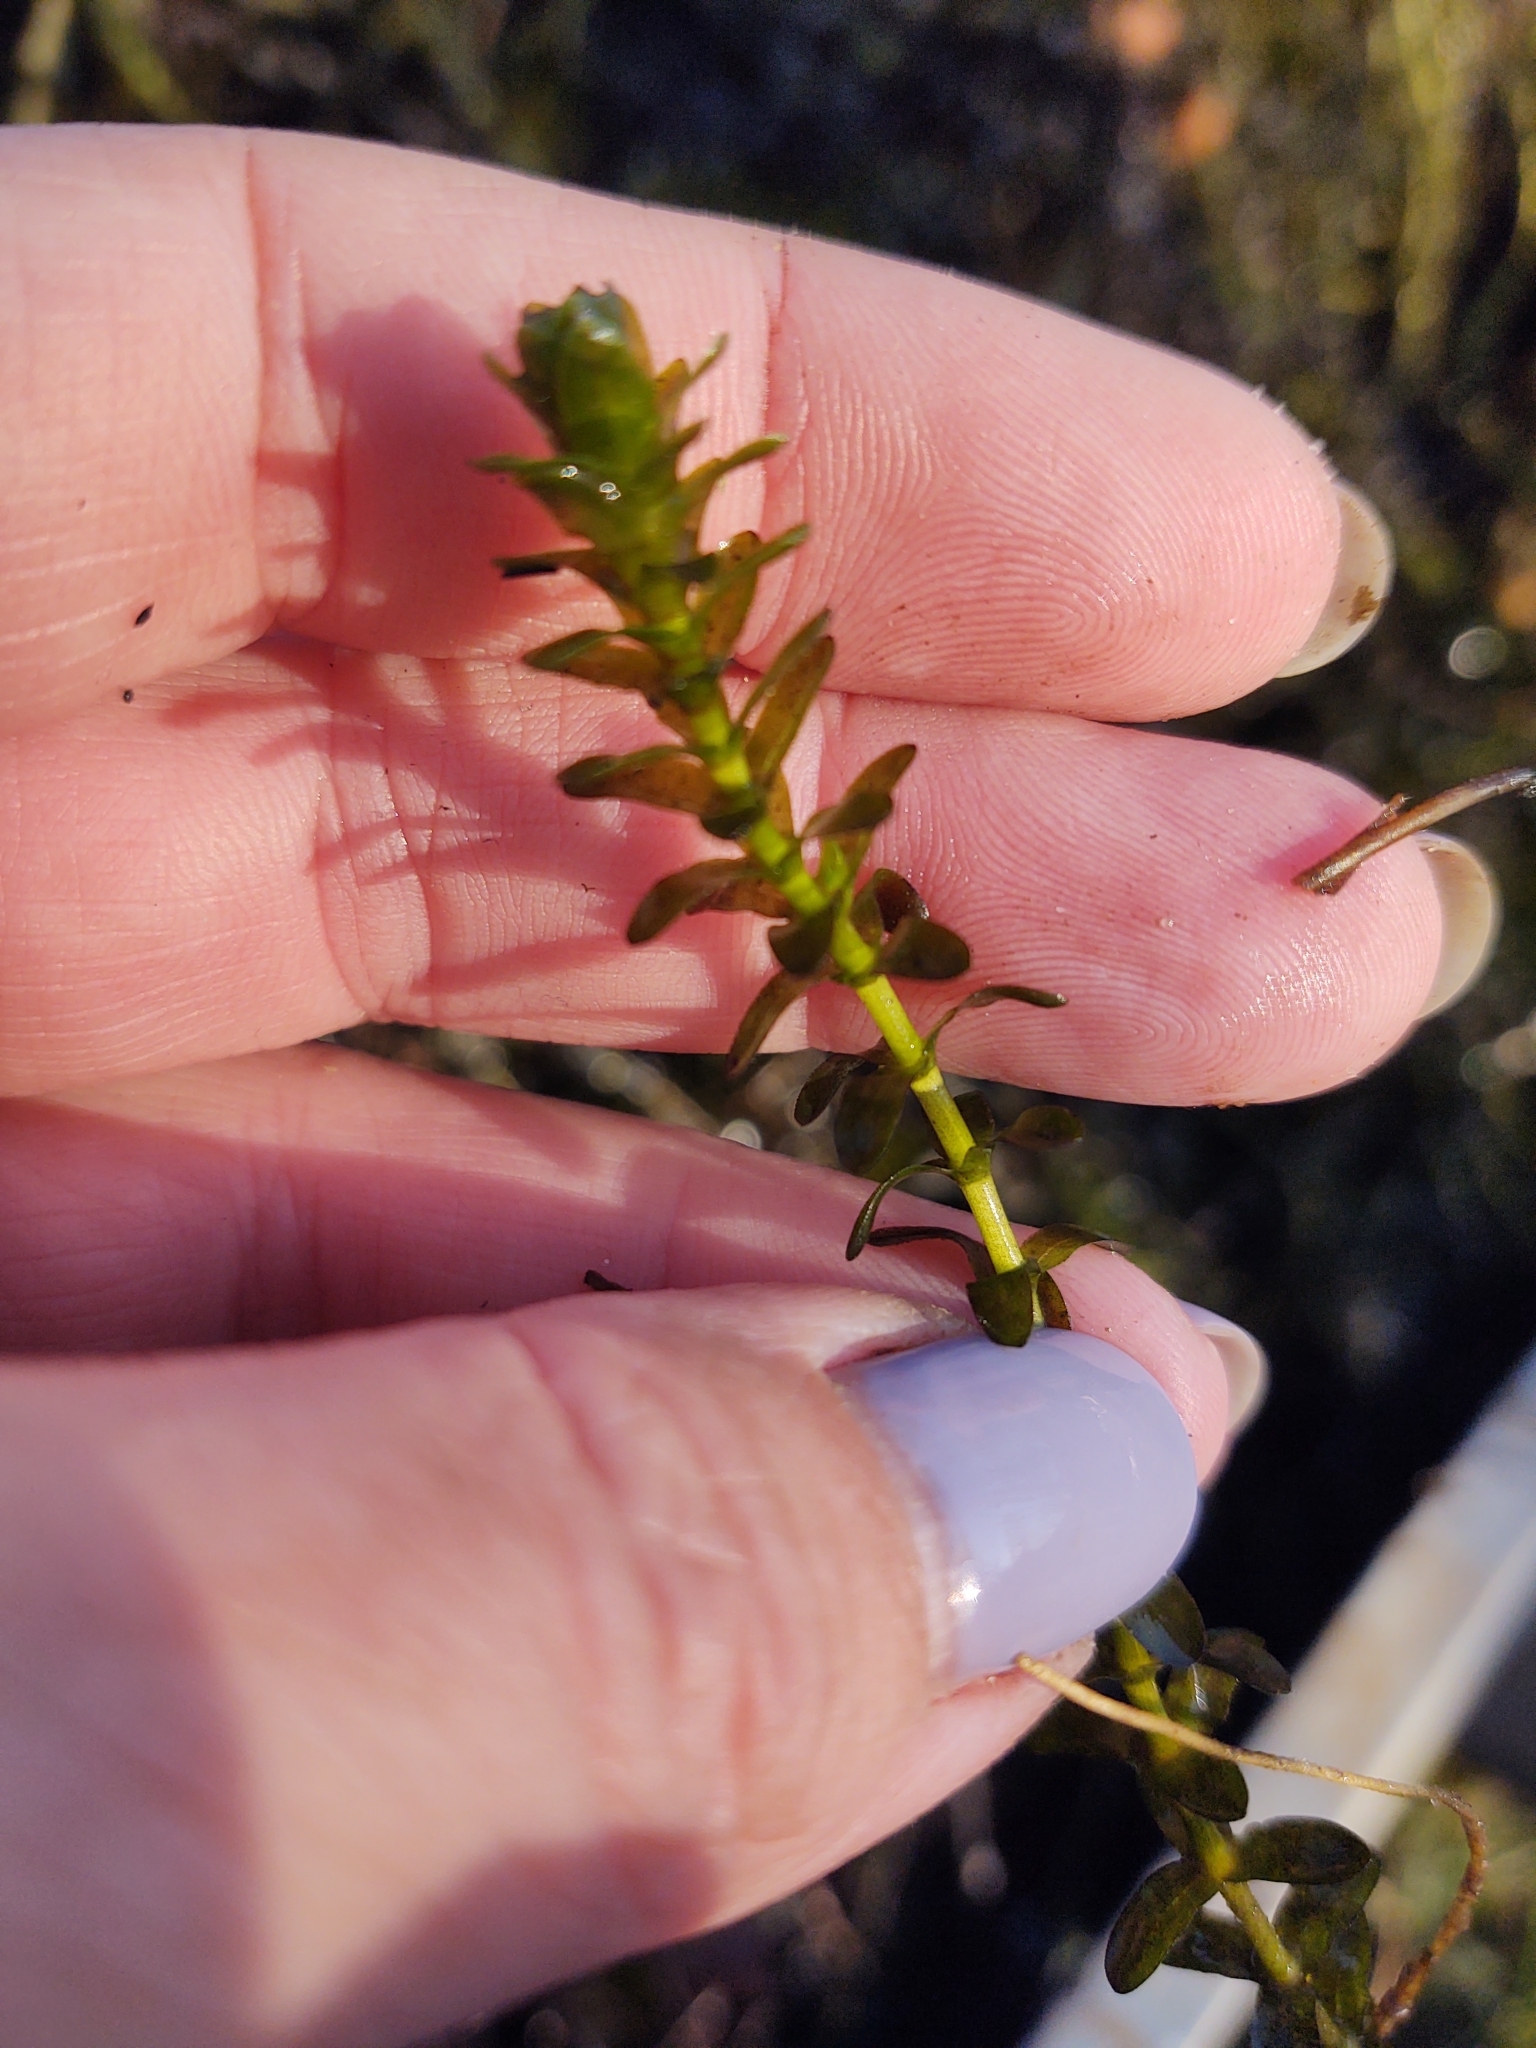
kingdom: Plantae
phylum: Tracheophyta
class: Liliopsida
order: Alismatales
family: Hydrocharitaceae
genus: Elodea
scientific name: Elodea canadensis
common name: Canadian waterweed
